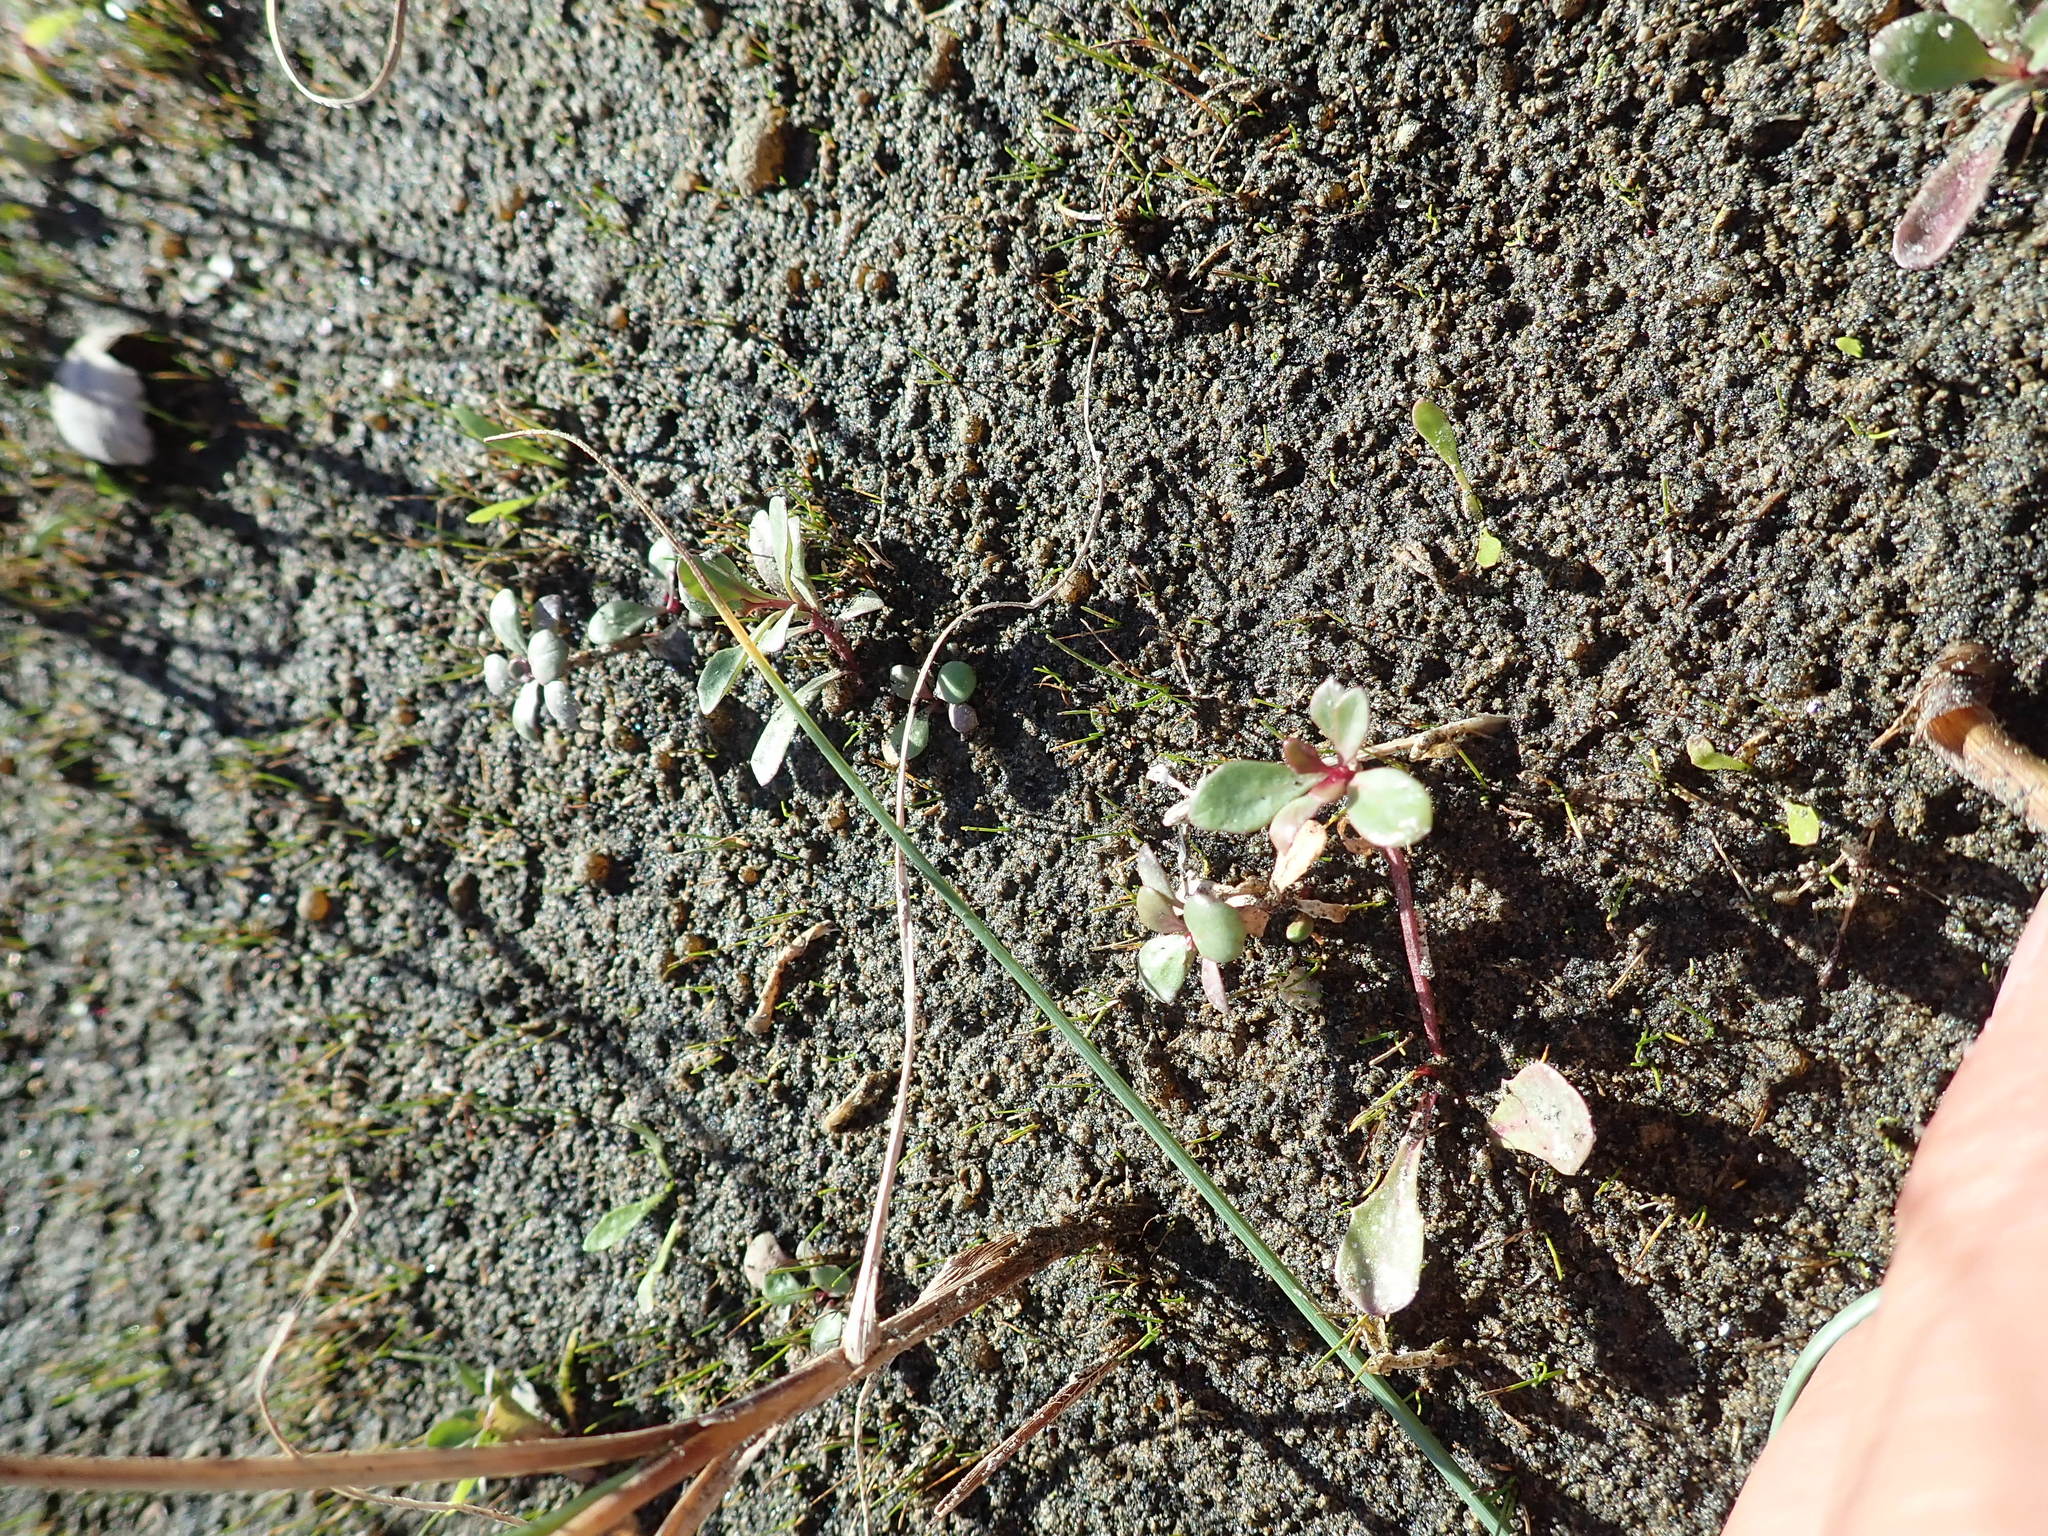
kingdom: Plantae
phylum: Tracheophyta
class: Magnoliopsida
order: Asterales
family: Campanulaceae
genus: Lobelia
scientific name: Lobelia anceps
